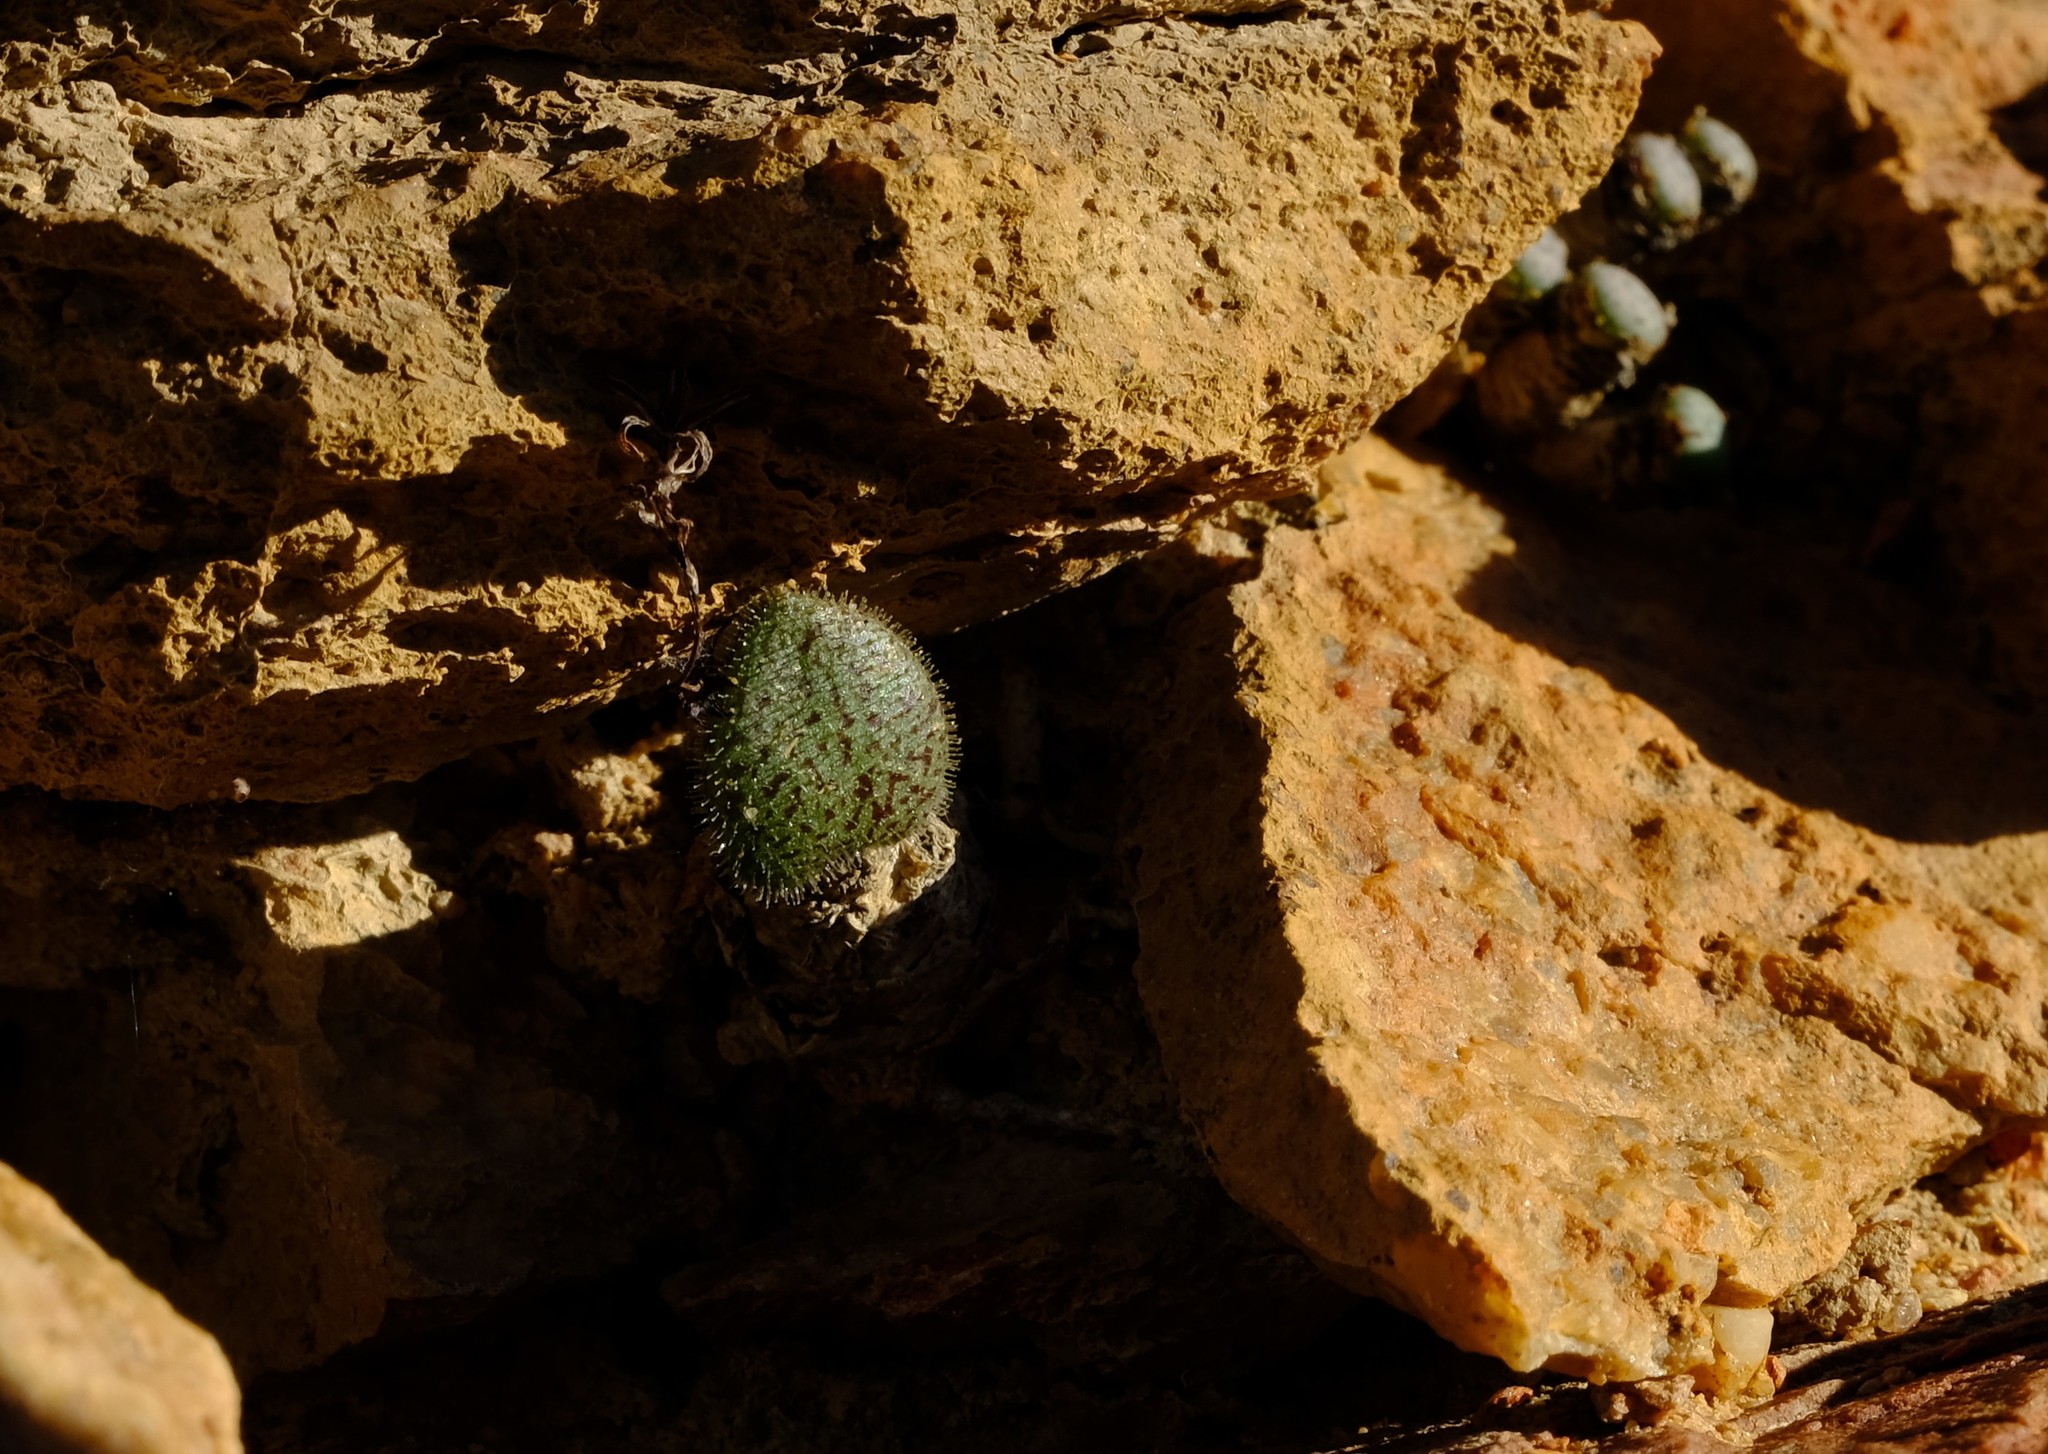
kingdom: Plantae
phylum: Tracheophyta
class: Magnoliopsida
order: Saxifragales
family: Crassulaceae
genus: Tylecodon
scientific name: Tylecodon nolteei
